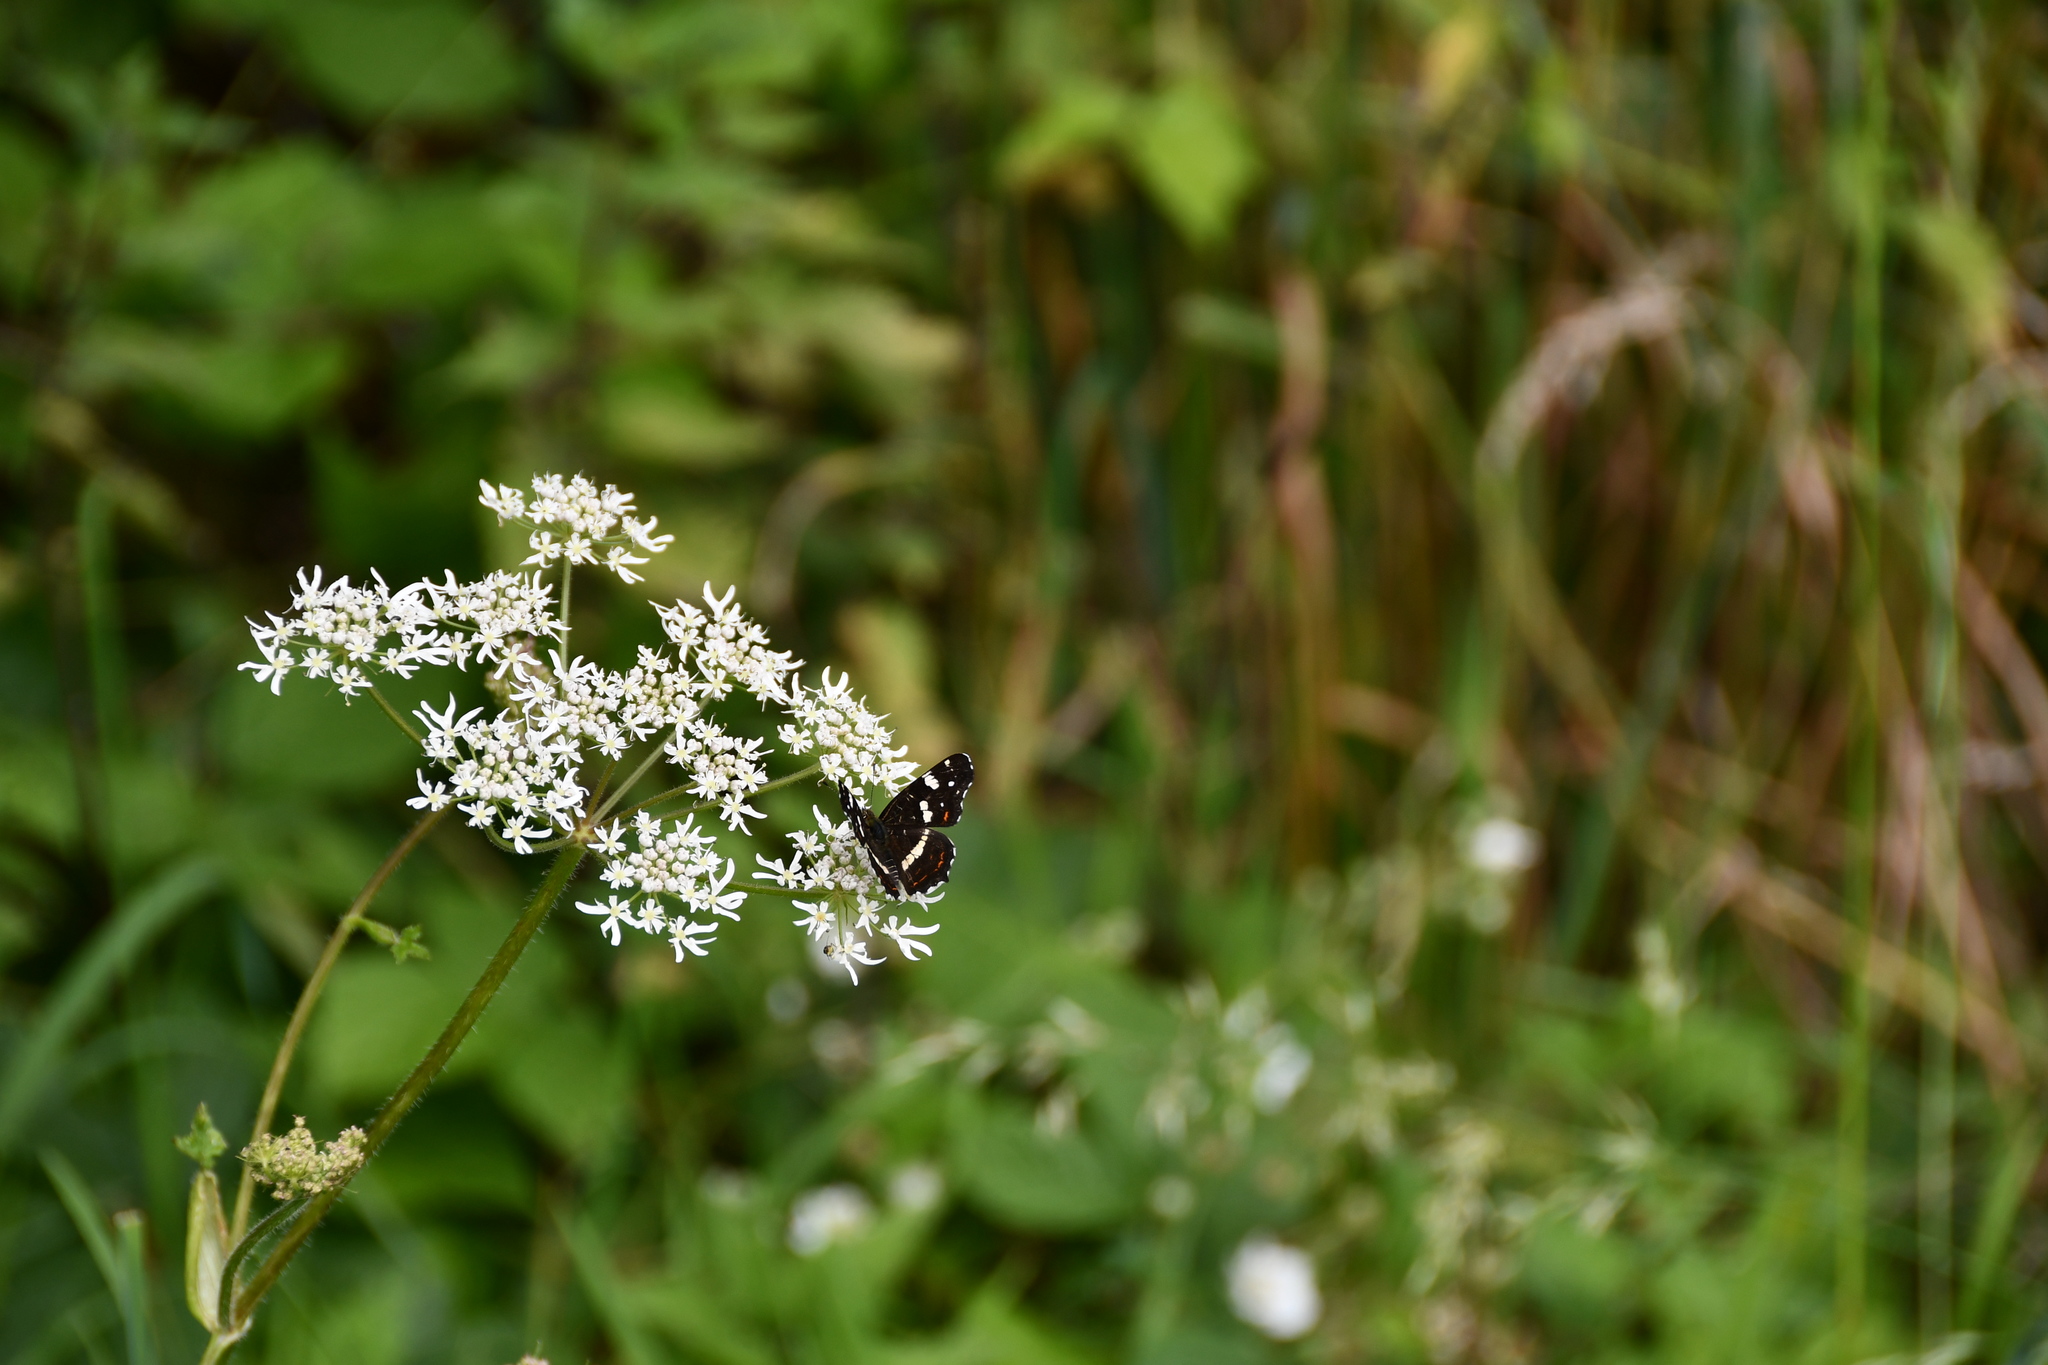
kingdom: Animalia
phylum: Arthropoda
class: Insecta
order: Lepidoptera
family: Nymphalidae
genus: Araschnia
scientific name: Araschnia levana
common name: Map butterfly
